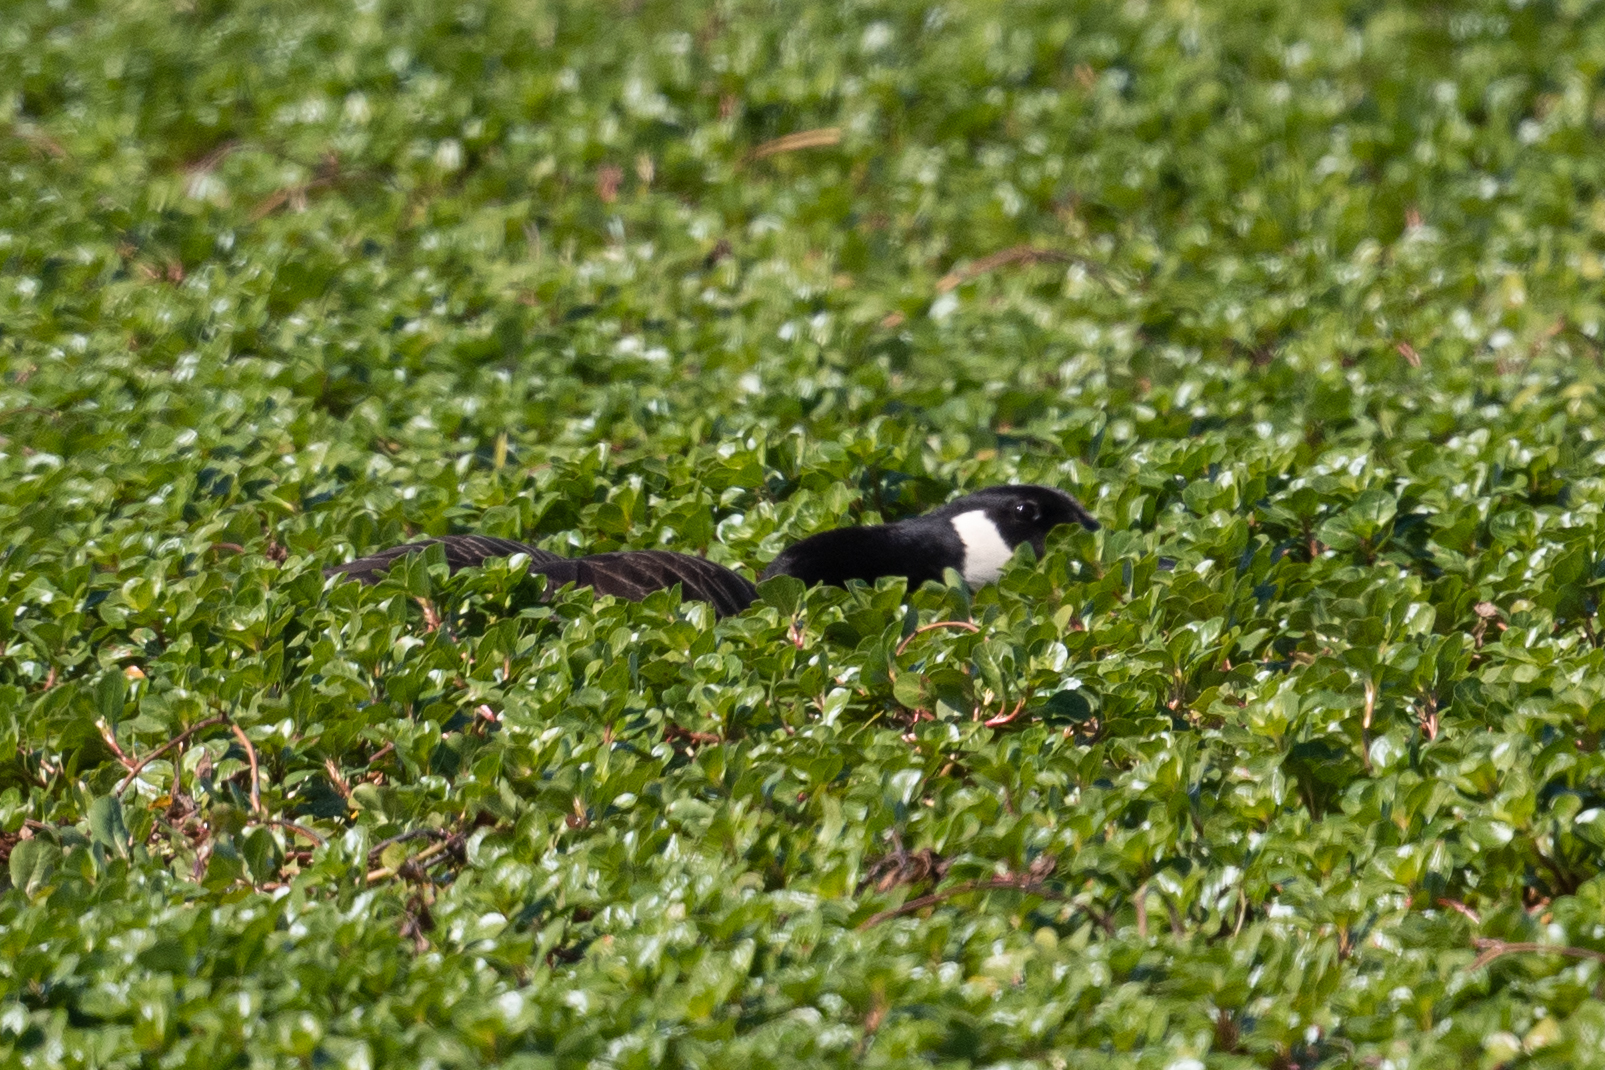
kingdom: Animalia
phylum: Chordata
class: Aves
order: Anseriformes
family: Anatidae
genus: Branta
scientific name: Branta canadensis
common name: Canada goose
